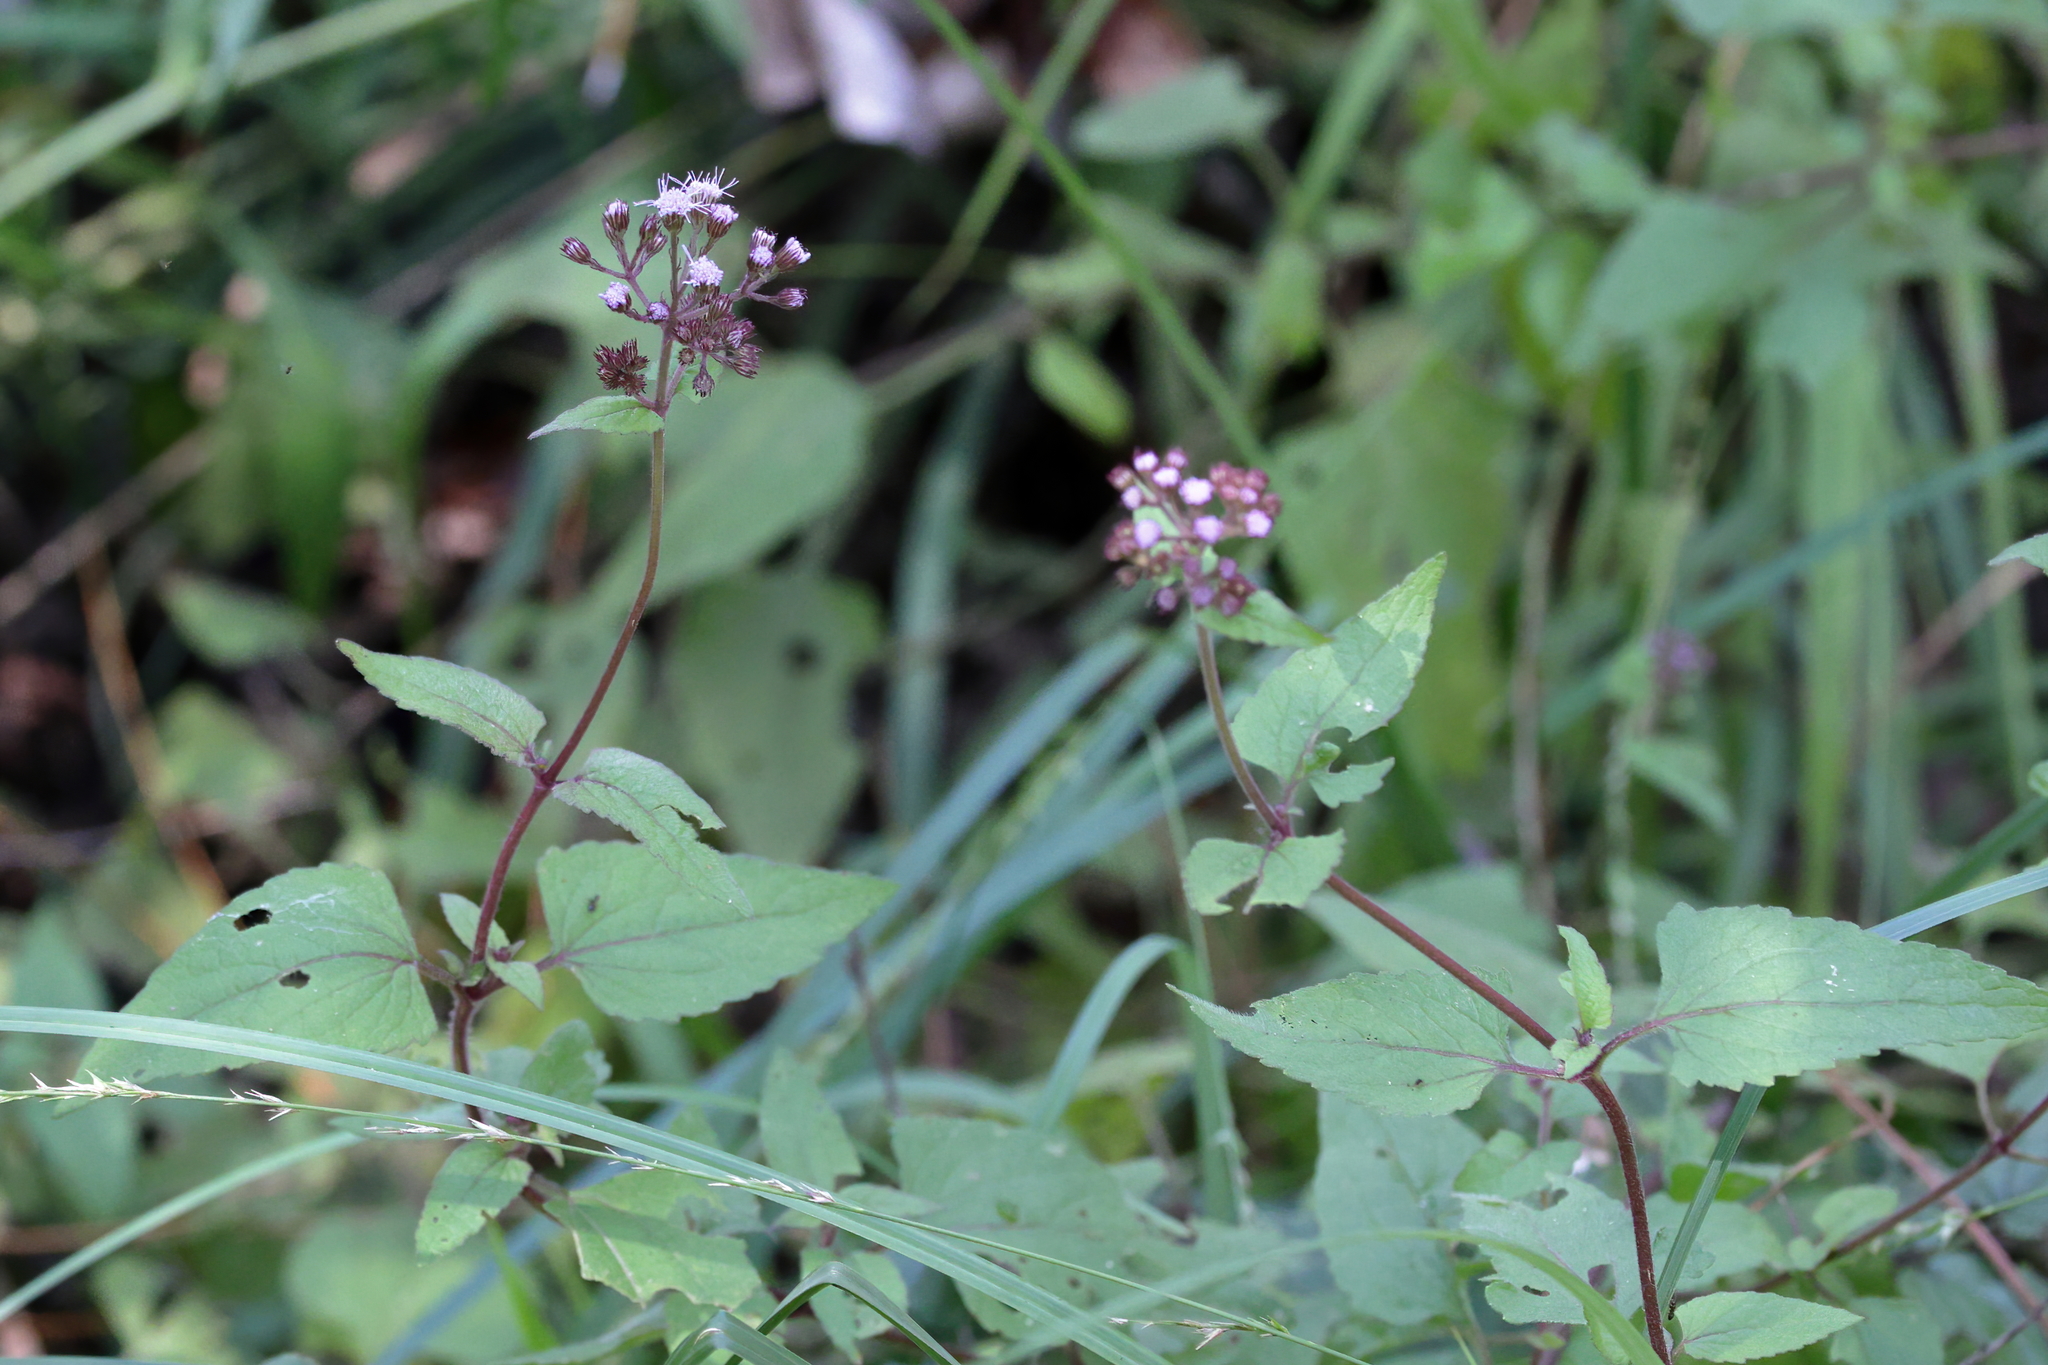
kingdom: Plantae
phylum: Tracheophyta
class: Magnoliopsida
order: Asterales
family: Asteraceae
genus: Conoclinium
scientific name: Conoclinium coelestinum
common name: Blue mistflower
